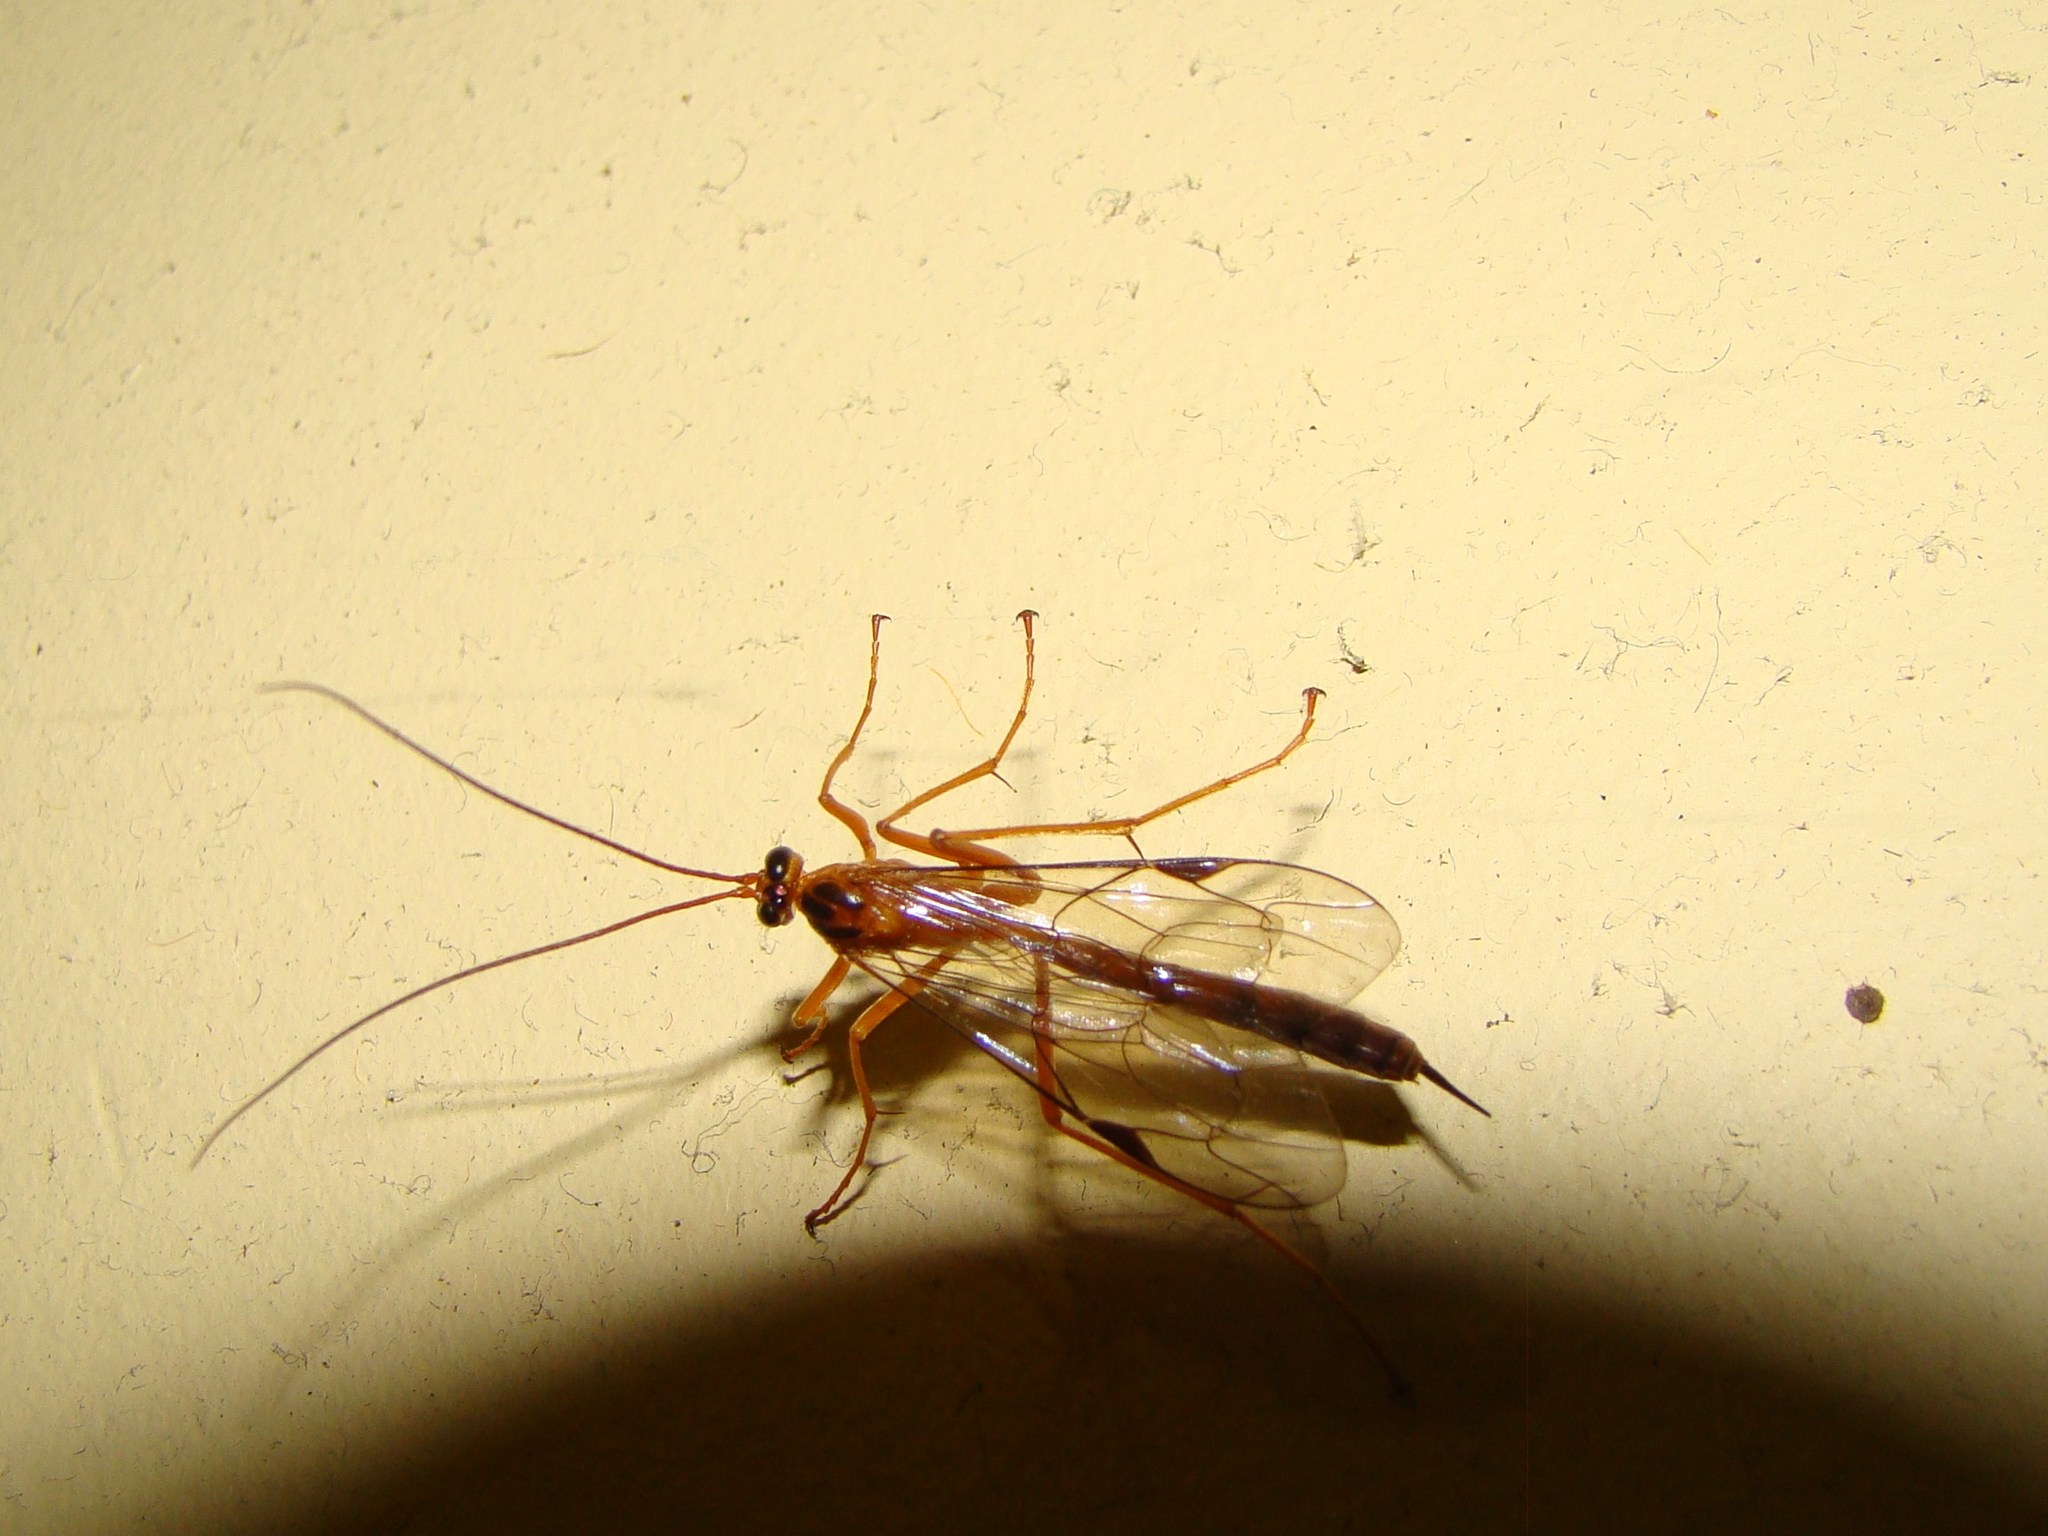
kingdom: Animalia
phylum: Arthropoda
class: Insecta
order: Hymenoptera
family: Ichneumonidae
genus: Netelia
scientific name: Netelia ephippiata
